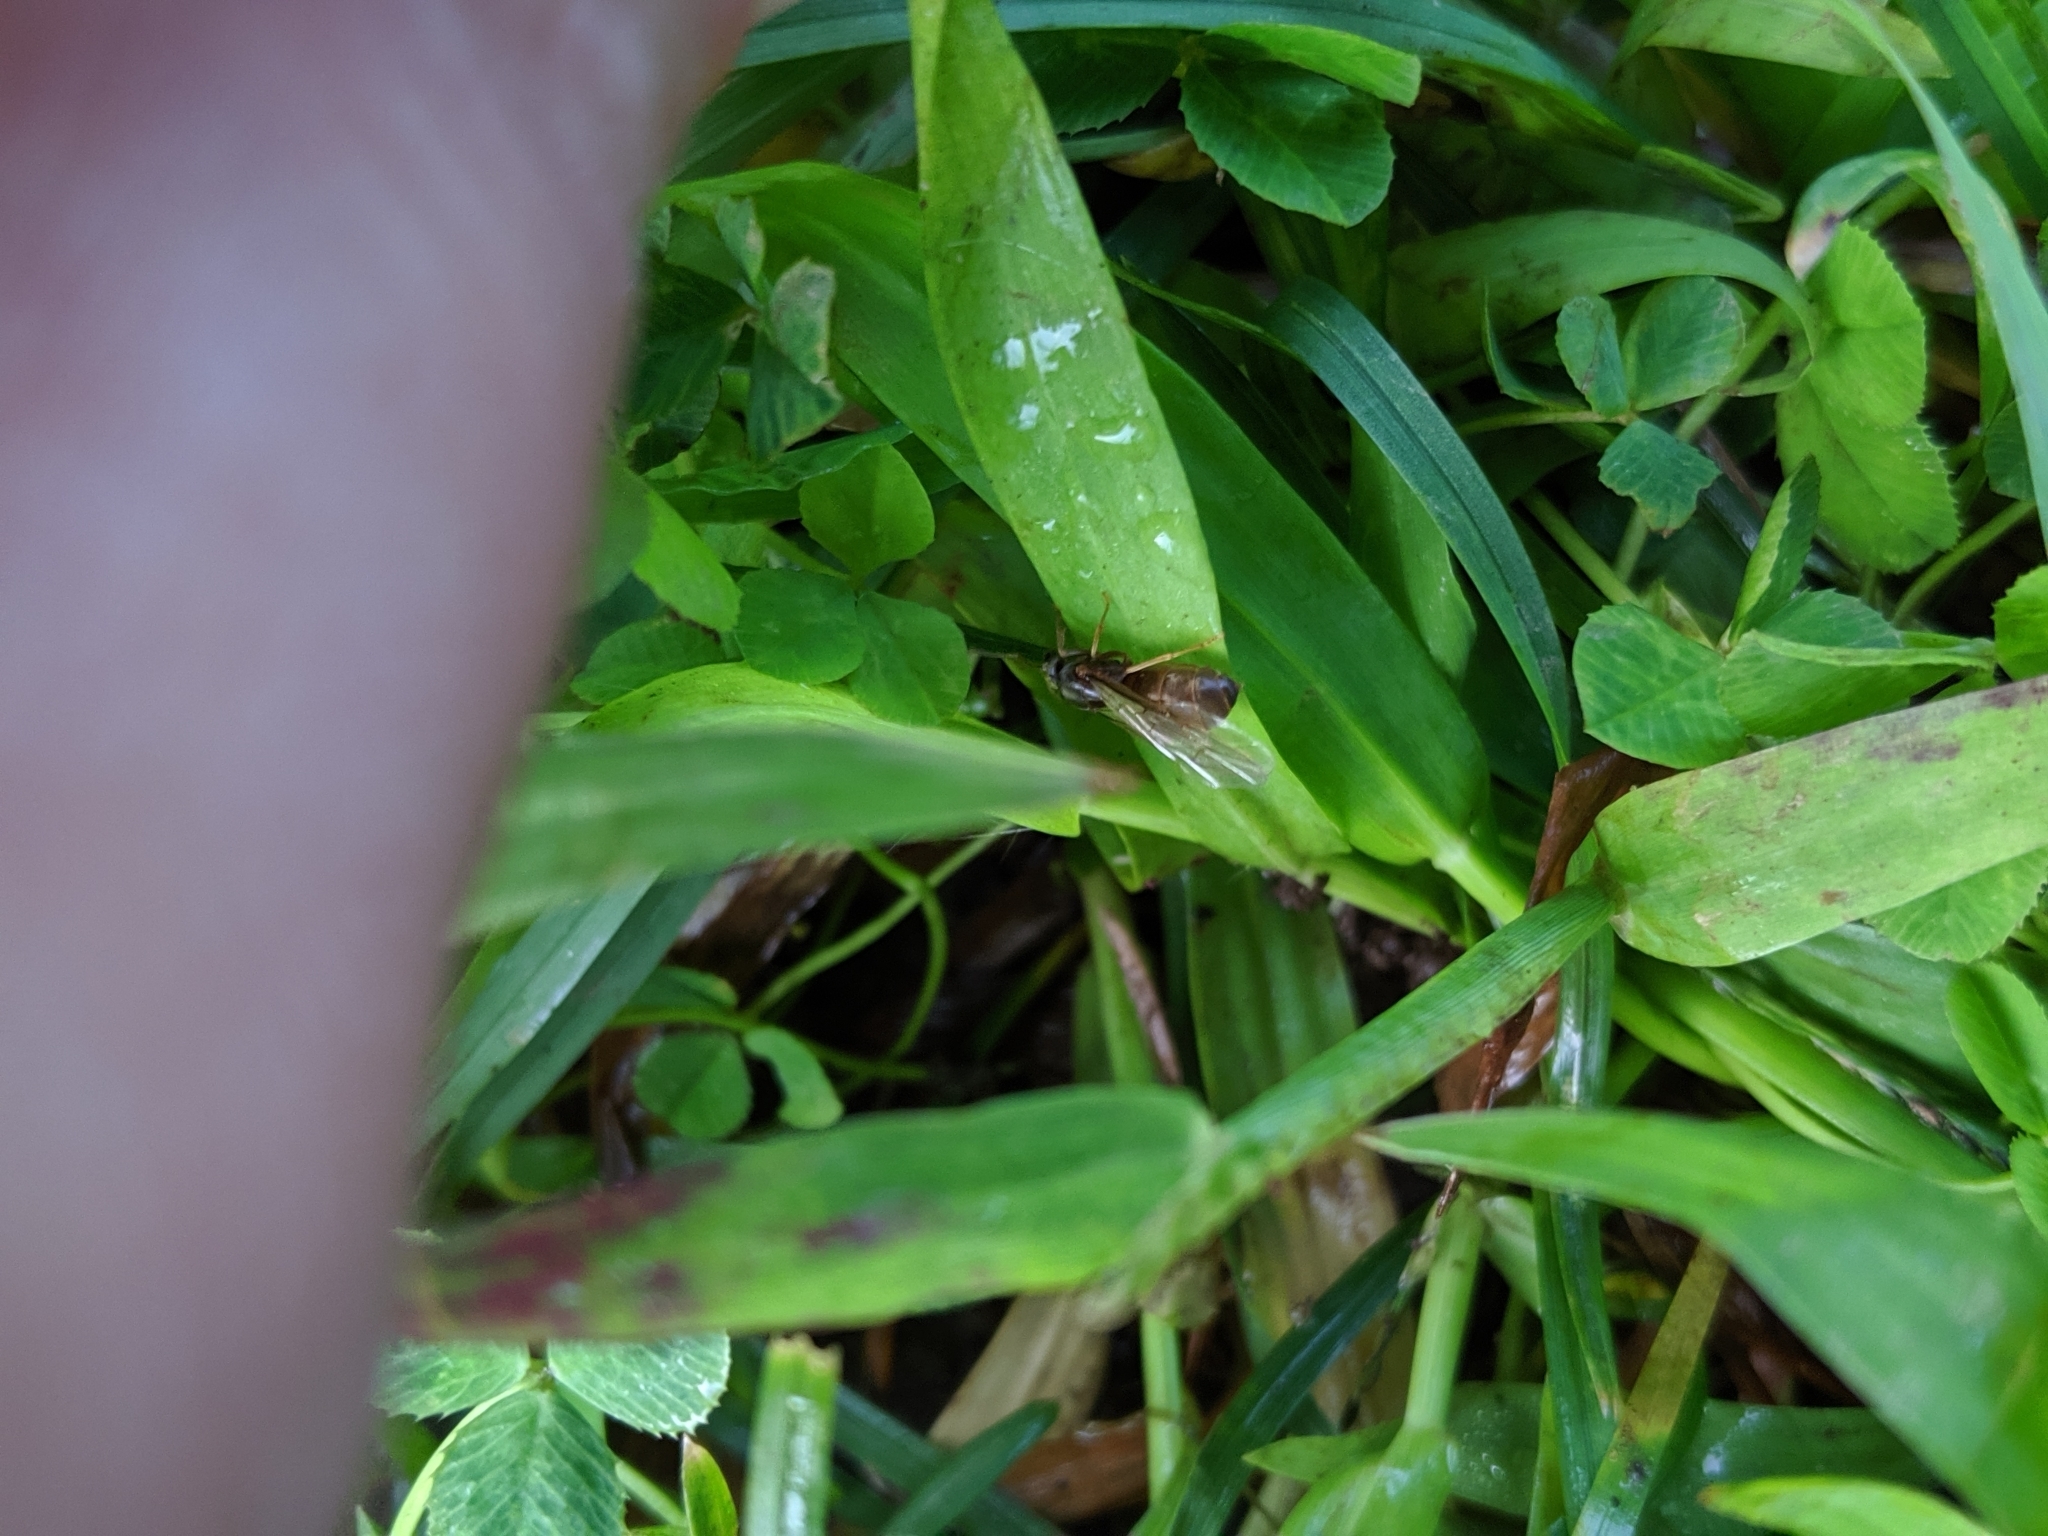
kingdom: Animalia
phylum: Arthropoda
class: Insecta
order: Hymenoptera
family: Formicidae
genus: Lasius
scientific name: Lasius
